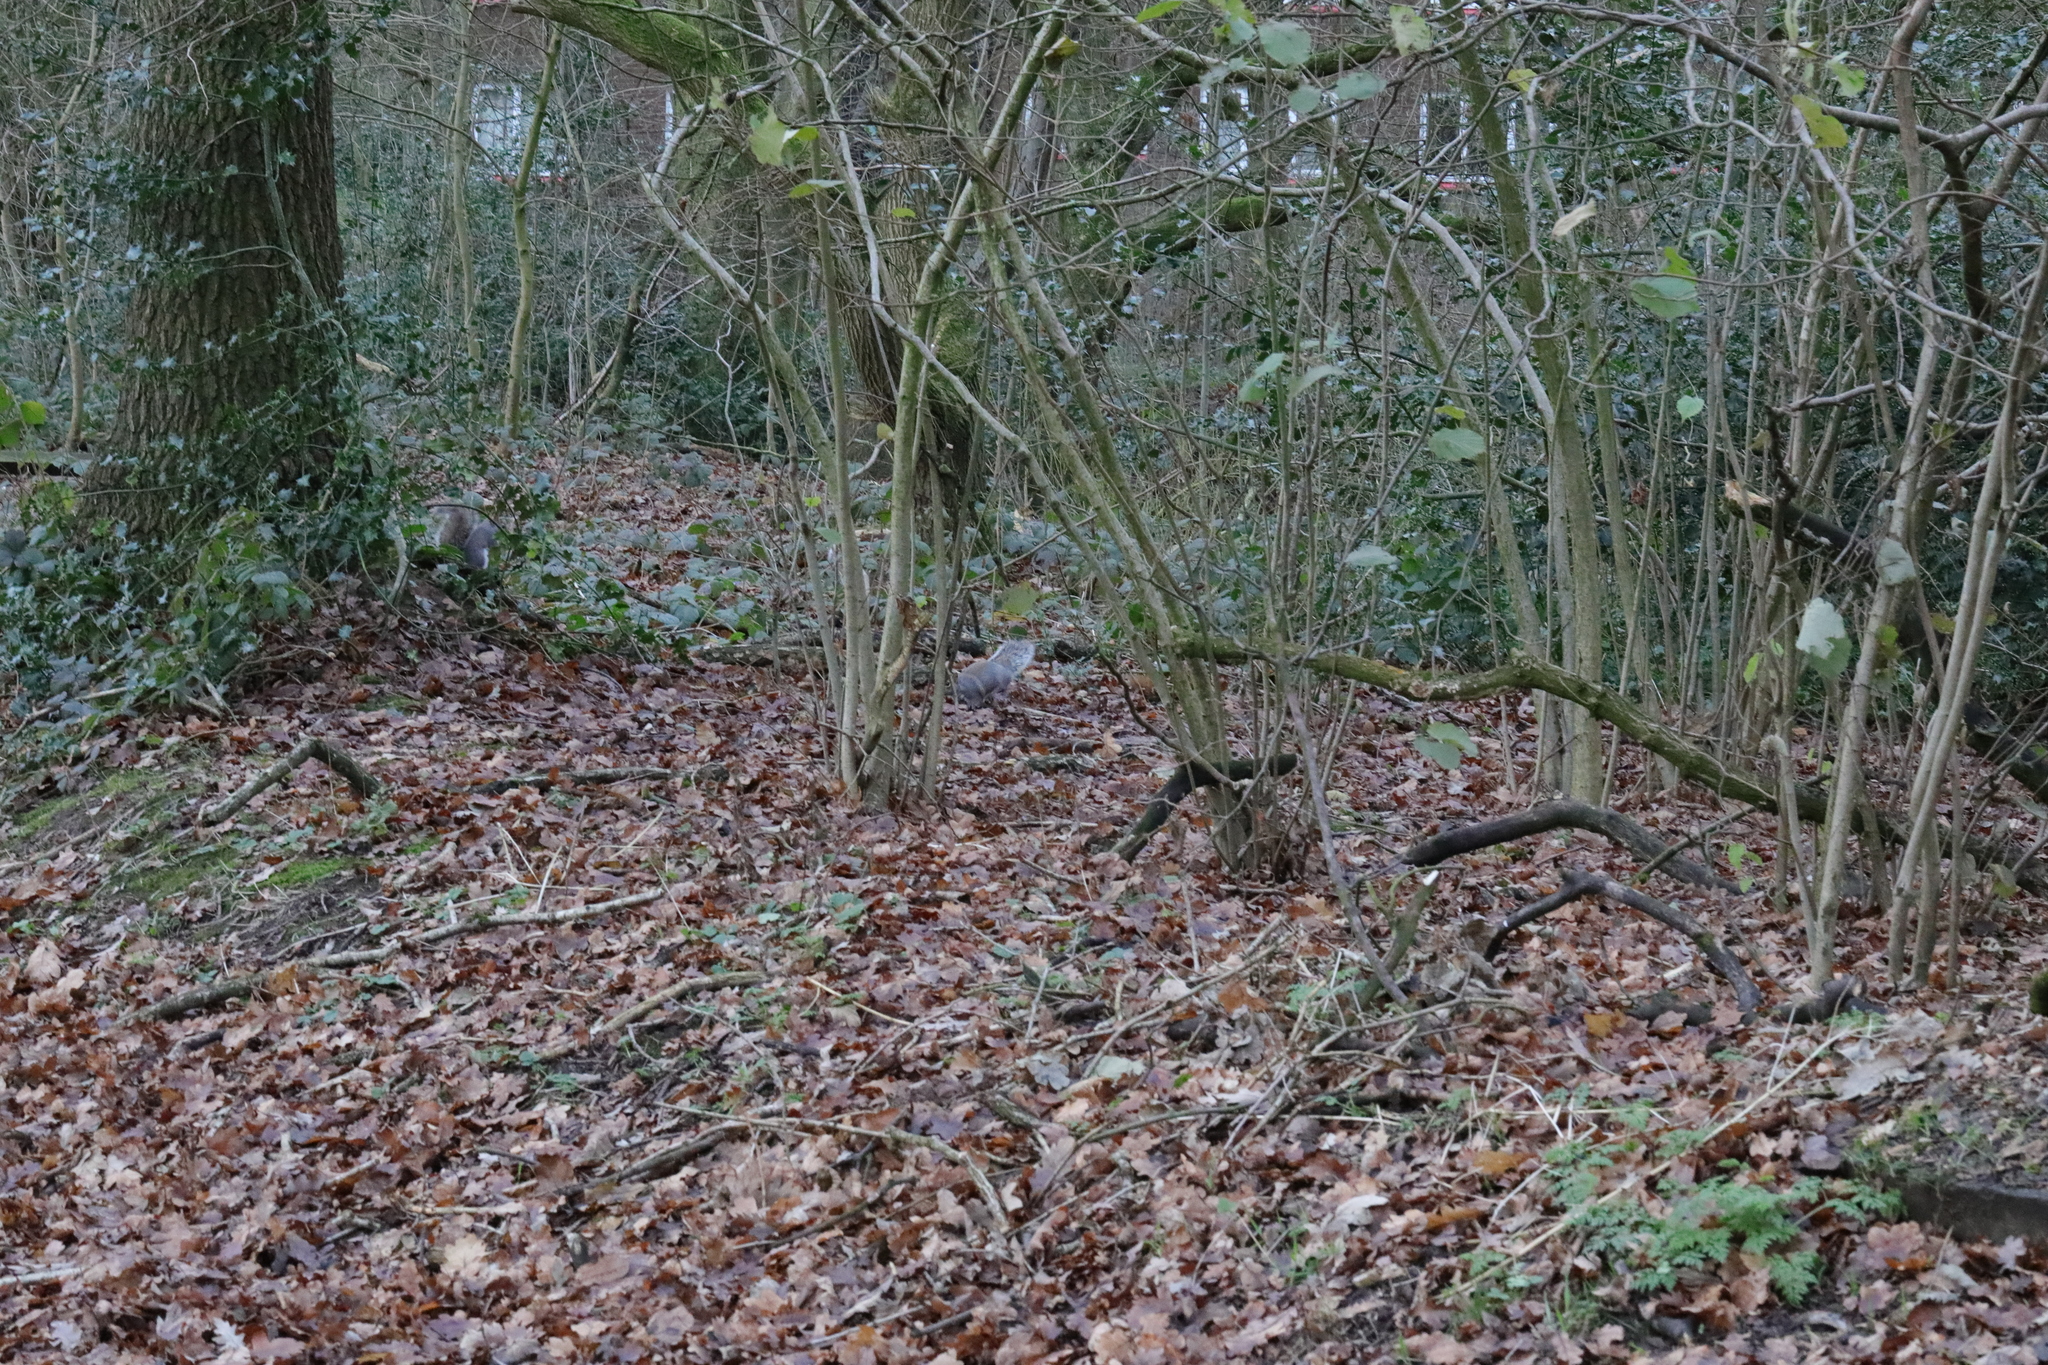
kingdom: Animalia
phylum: Chordata
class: Mammalia
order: Rodentia
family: Sciuridae
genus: Sciurus
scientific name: Sciurus carolinensis
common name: Eastern gray squirrel
